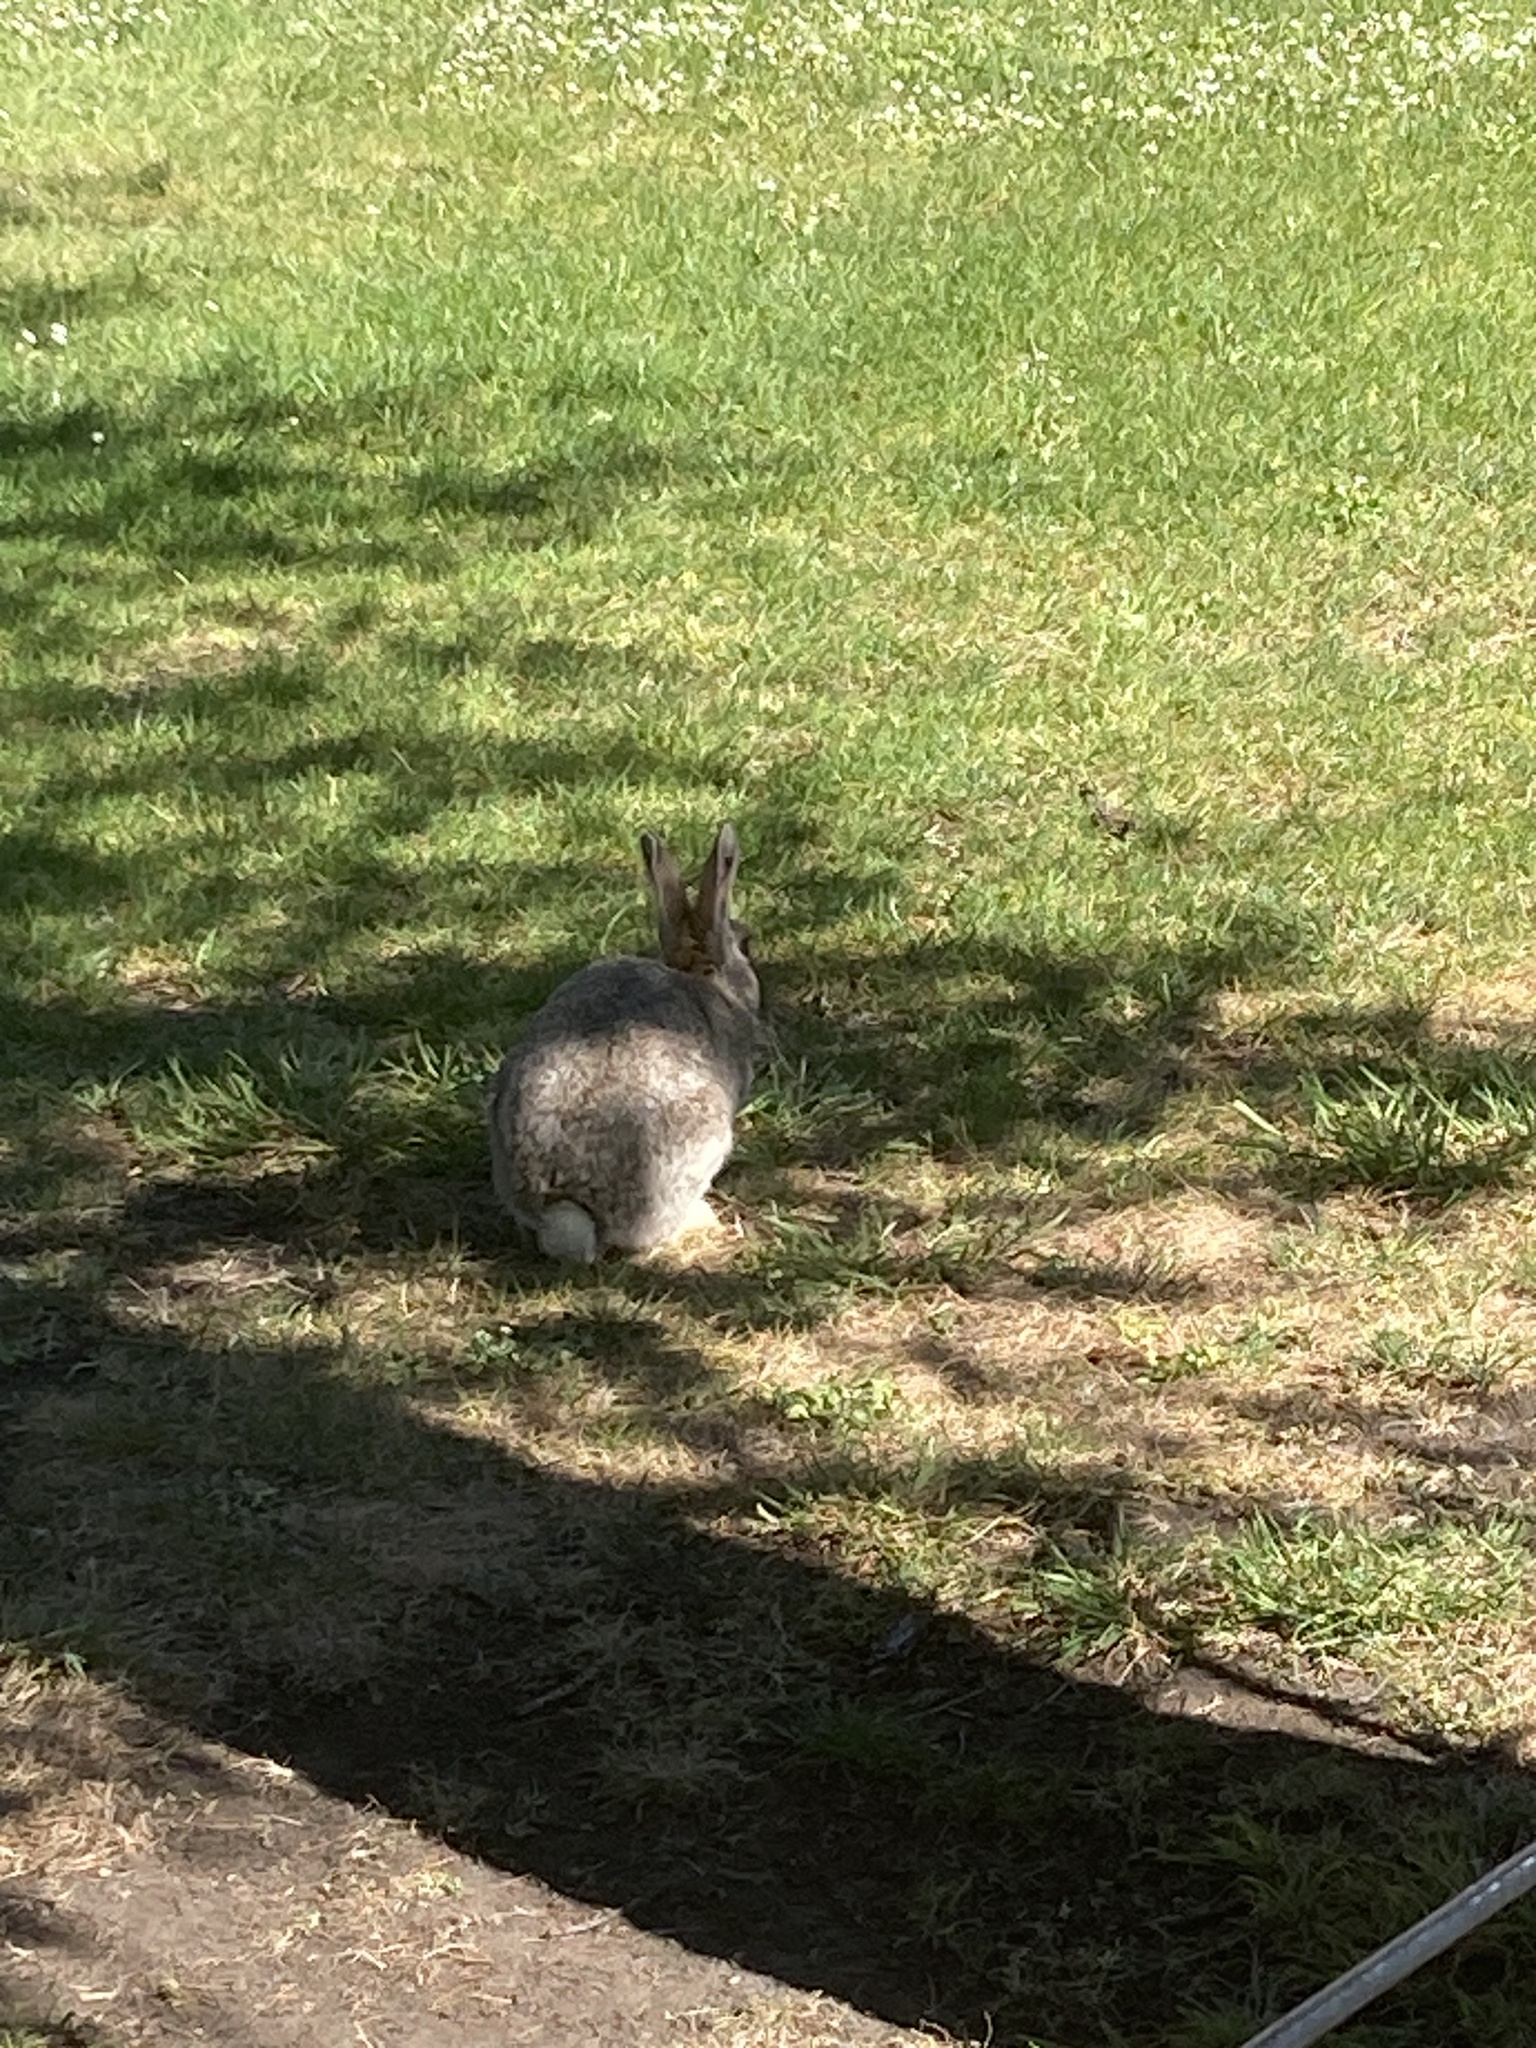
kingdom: Animalia
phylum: Chordata
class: Mammalia
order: Lagomorpha
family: Leporidae
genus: Oryctolagus
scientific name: Oryctolagus cuniculus
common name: European rabbit
